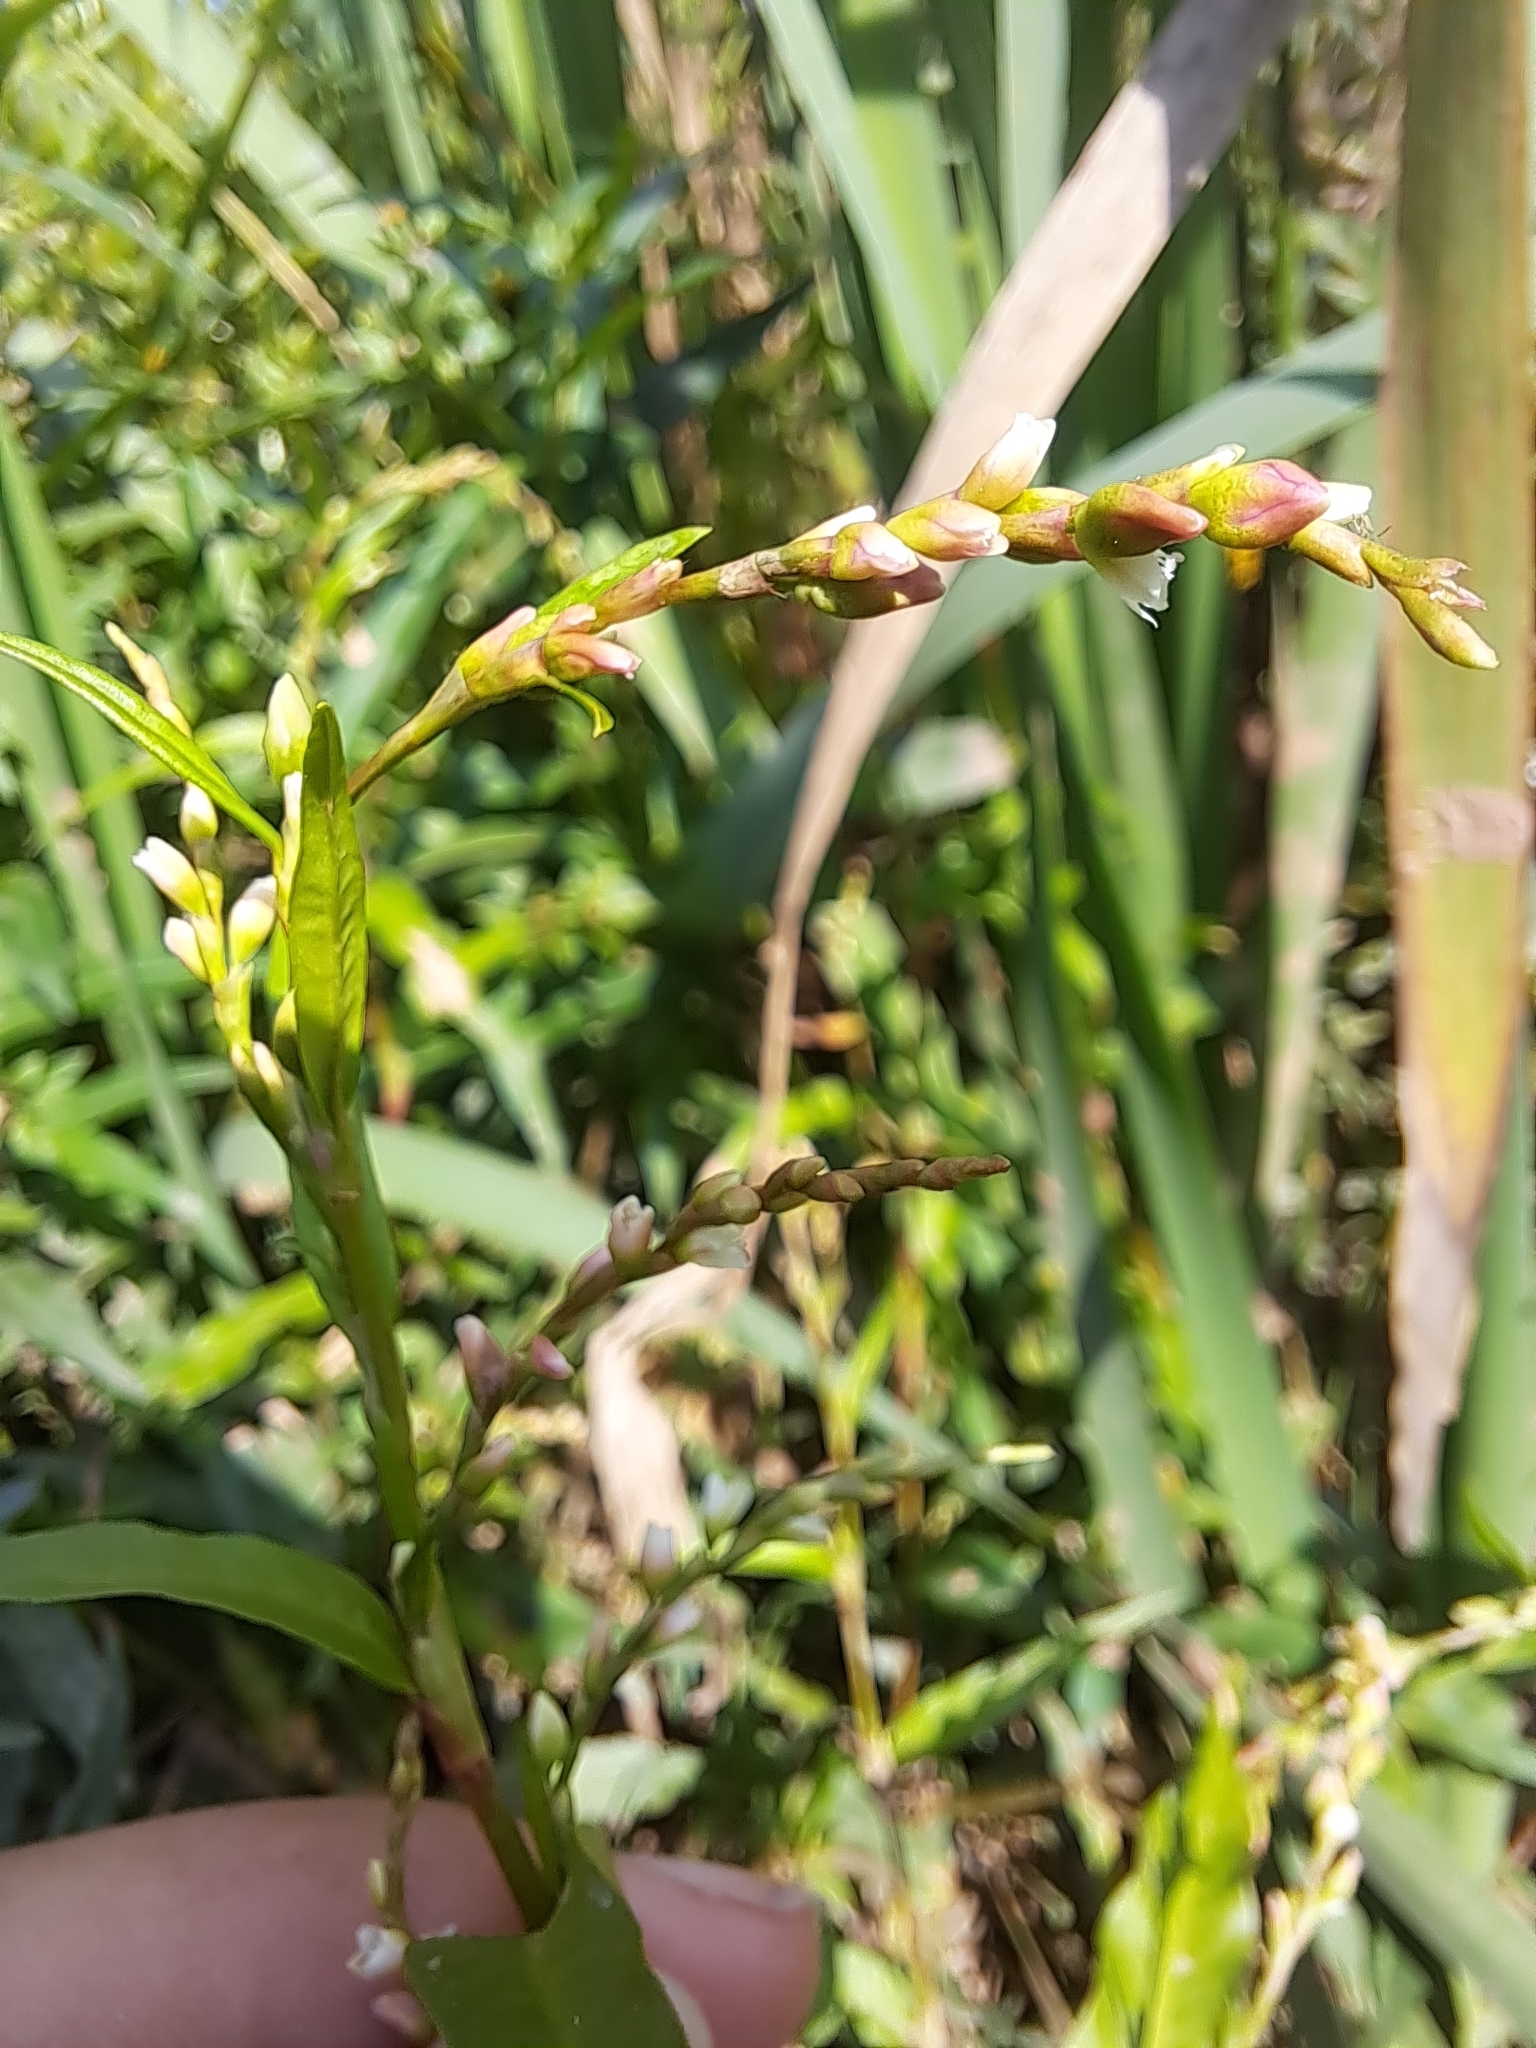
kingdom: Plantae
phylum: Tracheophyta
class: Magnoliopsida
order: Caryophyllales
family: Polygonaceae
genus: Persicaria
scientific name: Persicaria hydropiper
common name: Water-pepper
